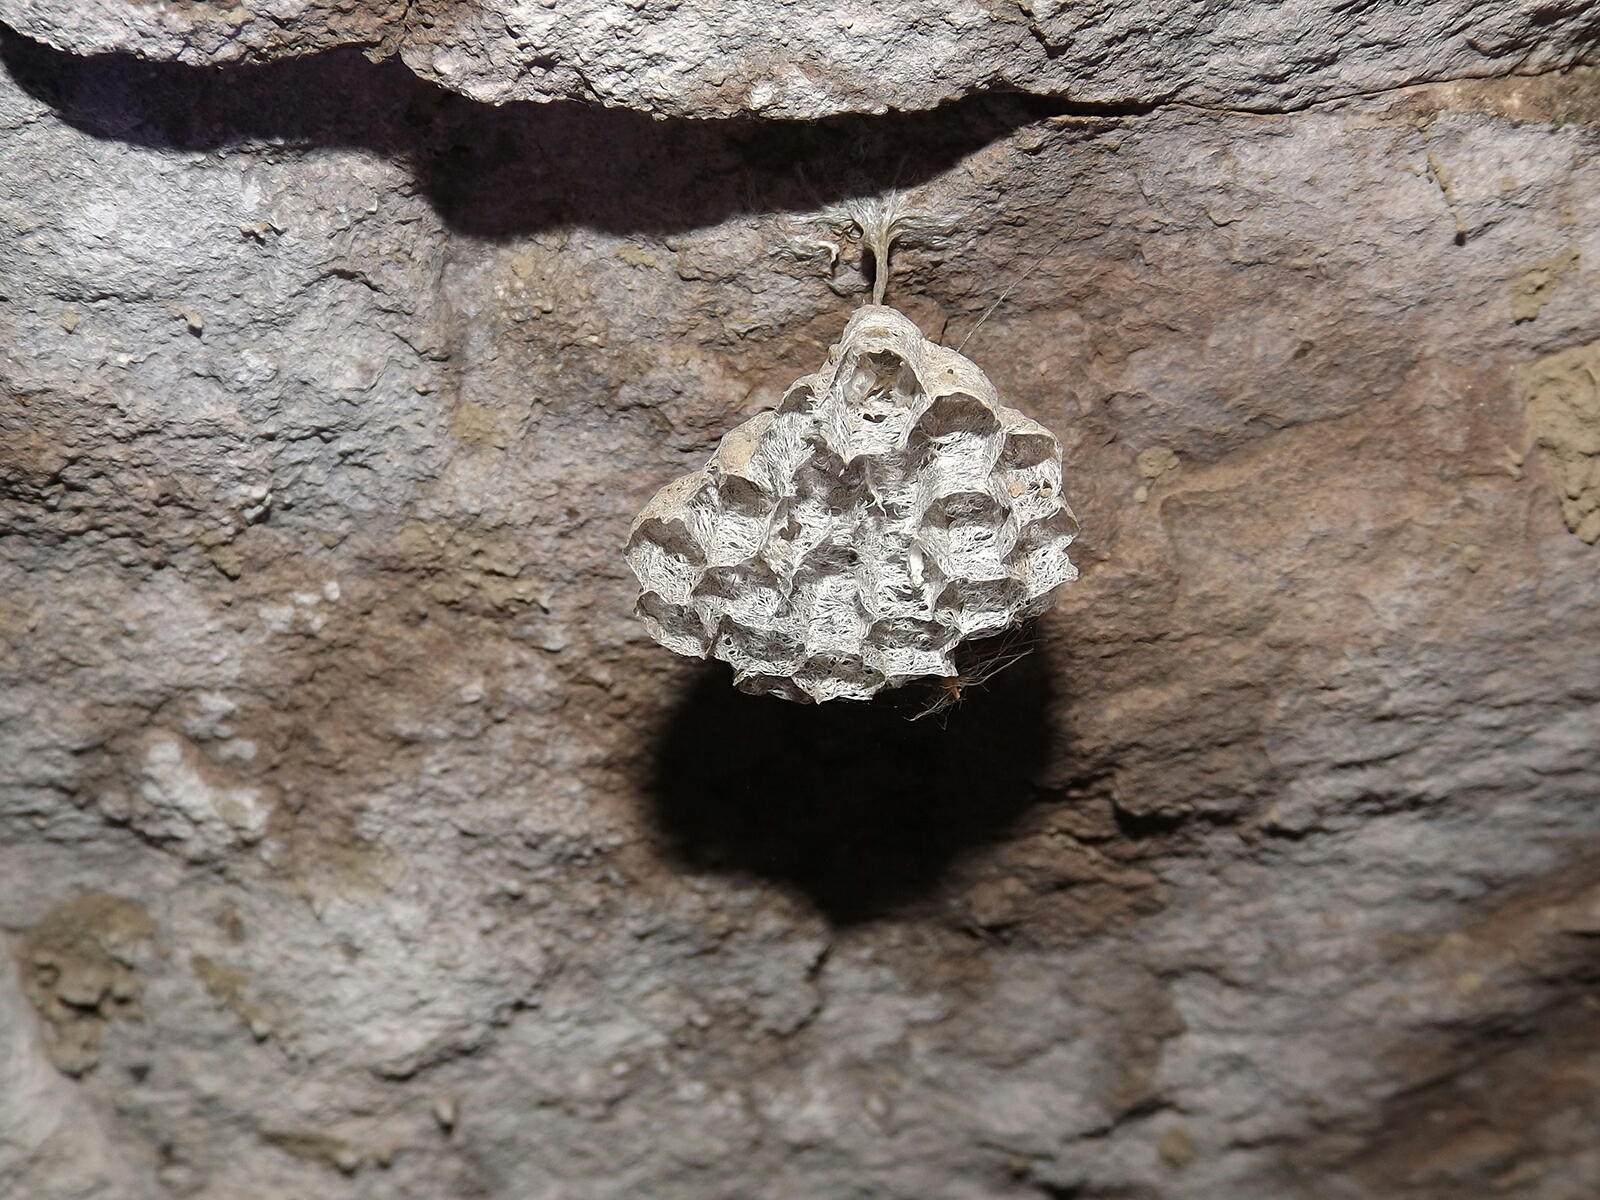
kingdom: Animalia
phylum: Arthropoda
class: Insecta
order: Hymenoptera
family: Eumenidae
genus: Polistes
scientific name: Polistes
